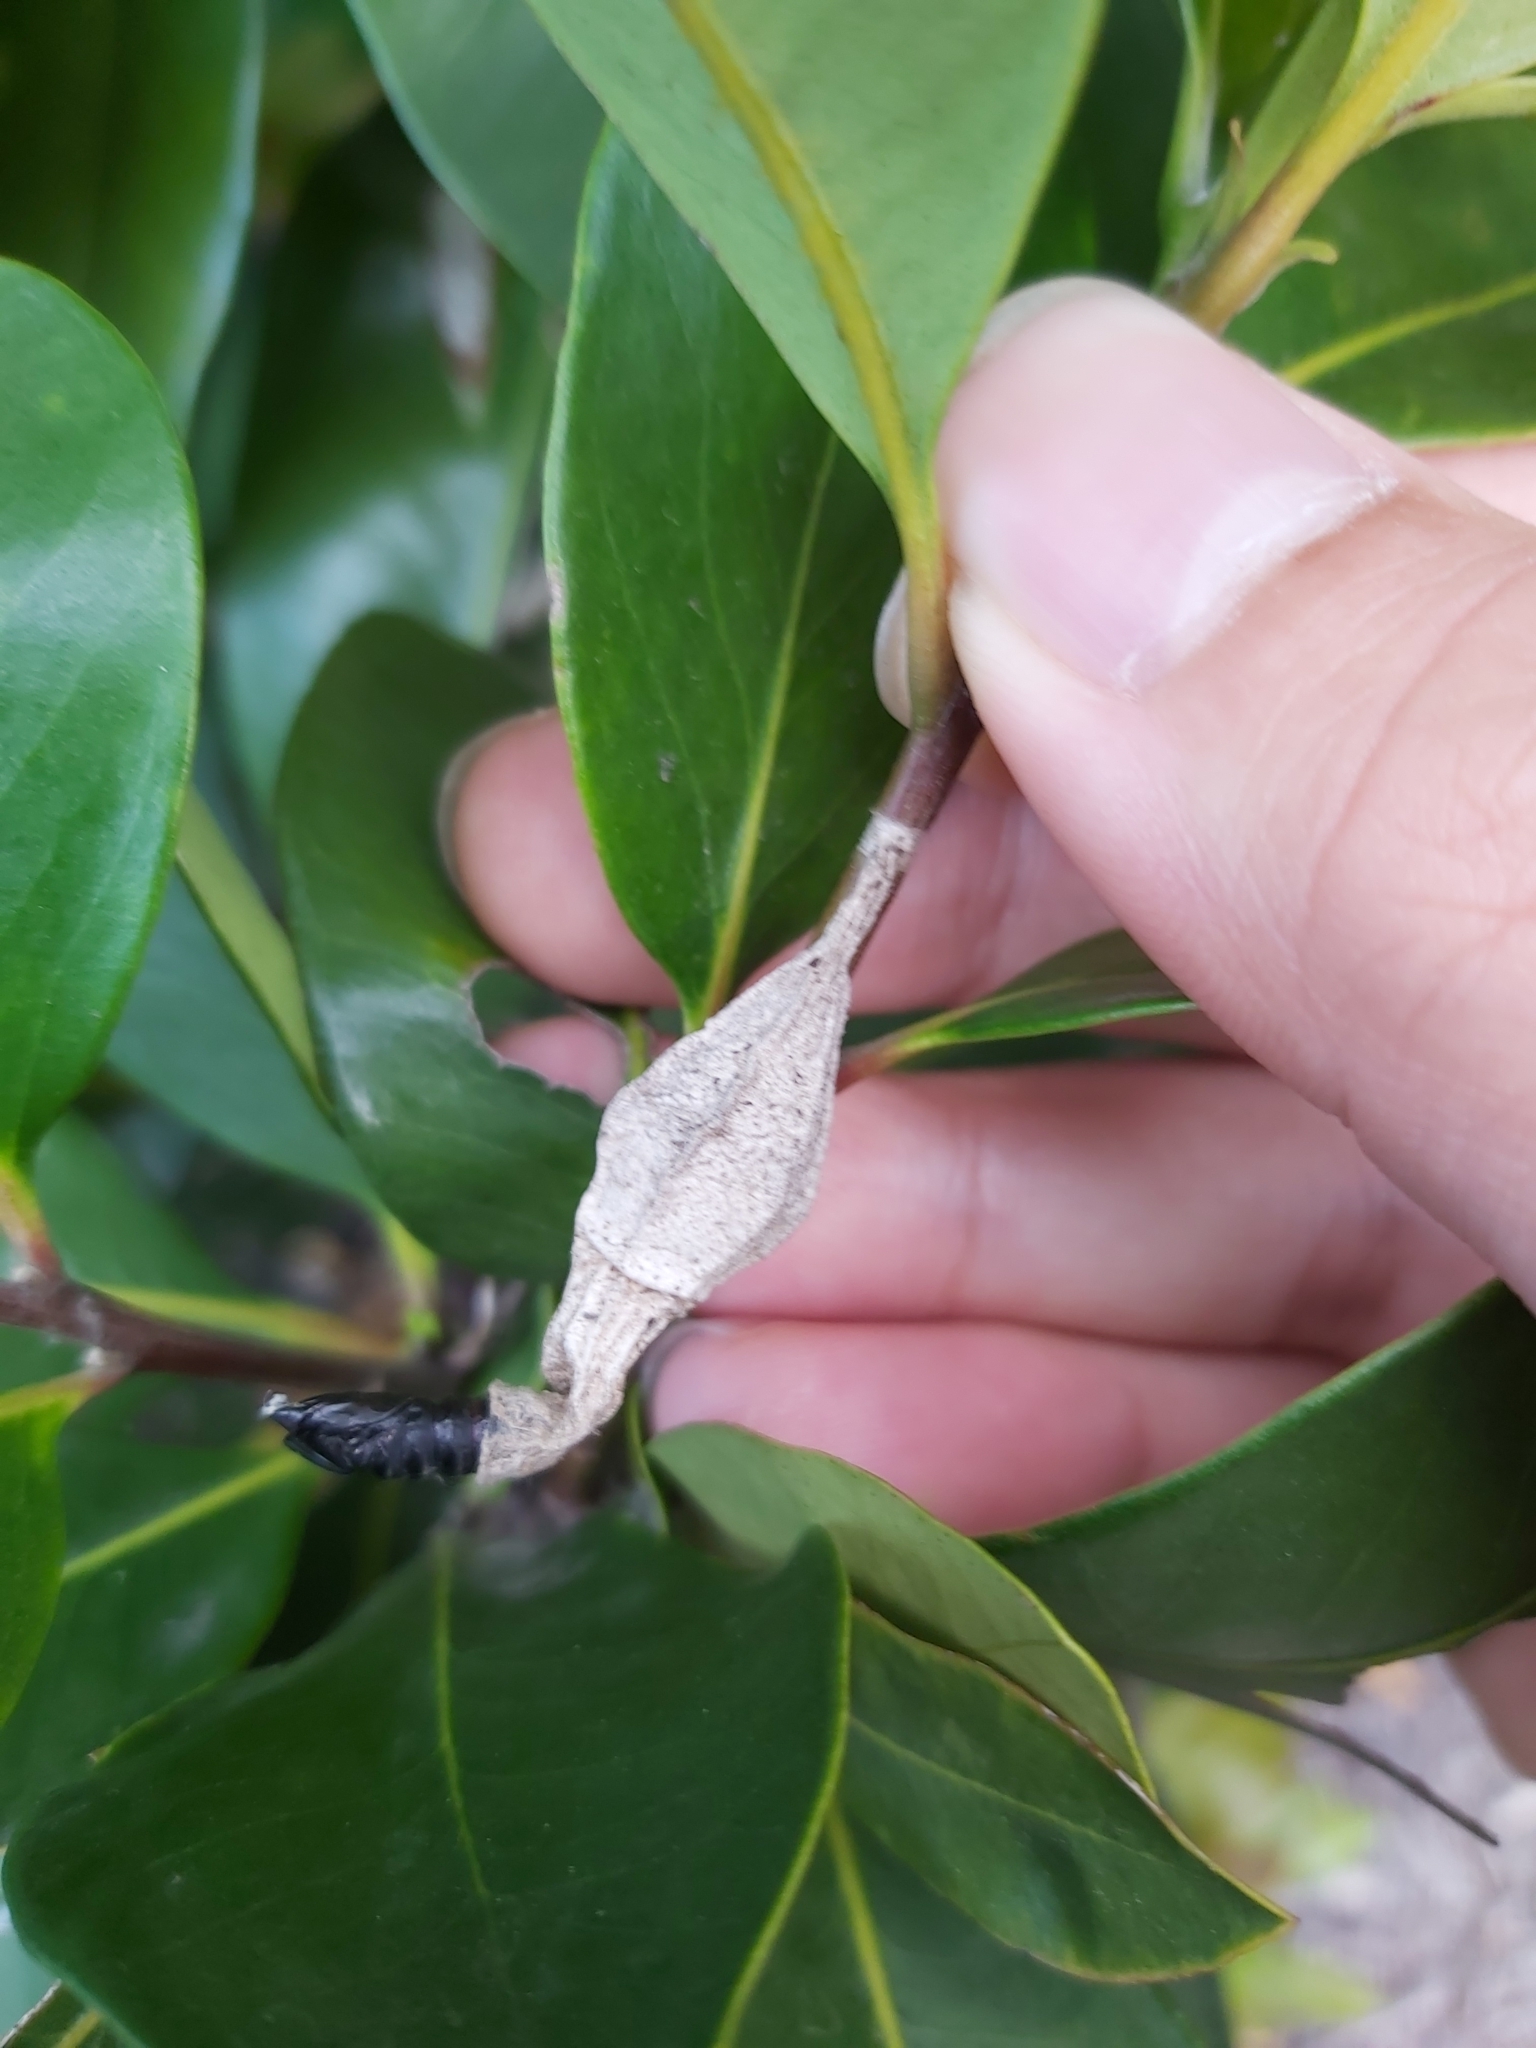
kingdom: Animalia
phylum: Arthropoda
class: Insecta
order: Lepidoptera
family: Psychidae
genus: Hyalarcta
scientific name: Hyalarcta nigrescens
